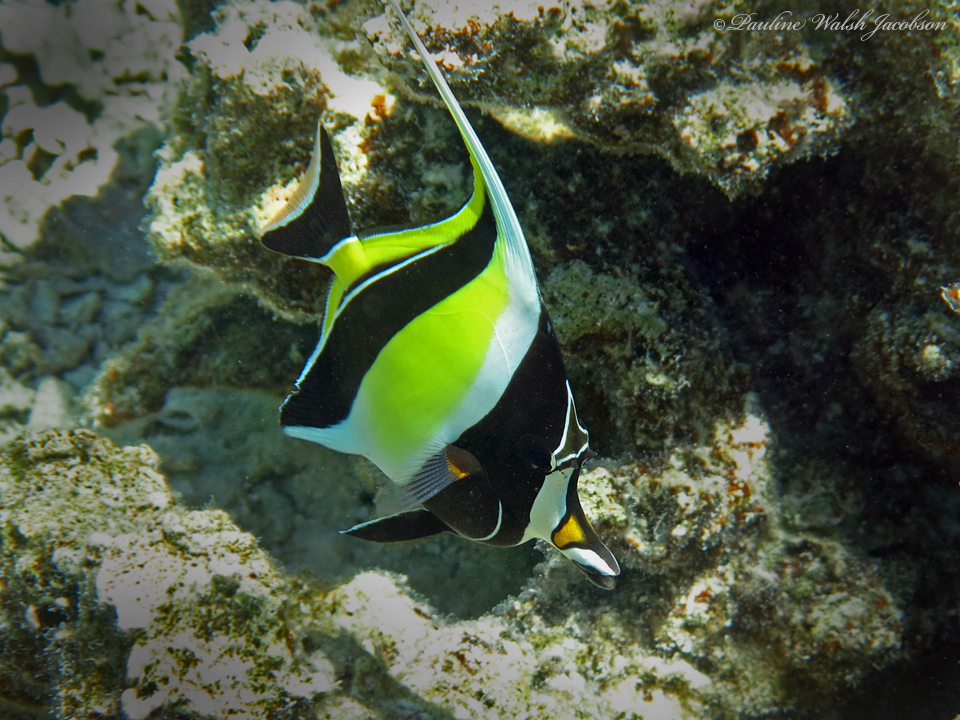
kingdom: Animalia
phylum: Chordata
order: Perciformes
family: Zanclidae
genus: Zanclus
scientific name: Zanclus cornutus
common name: Moorish idol
